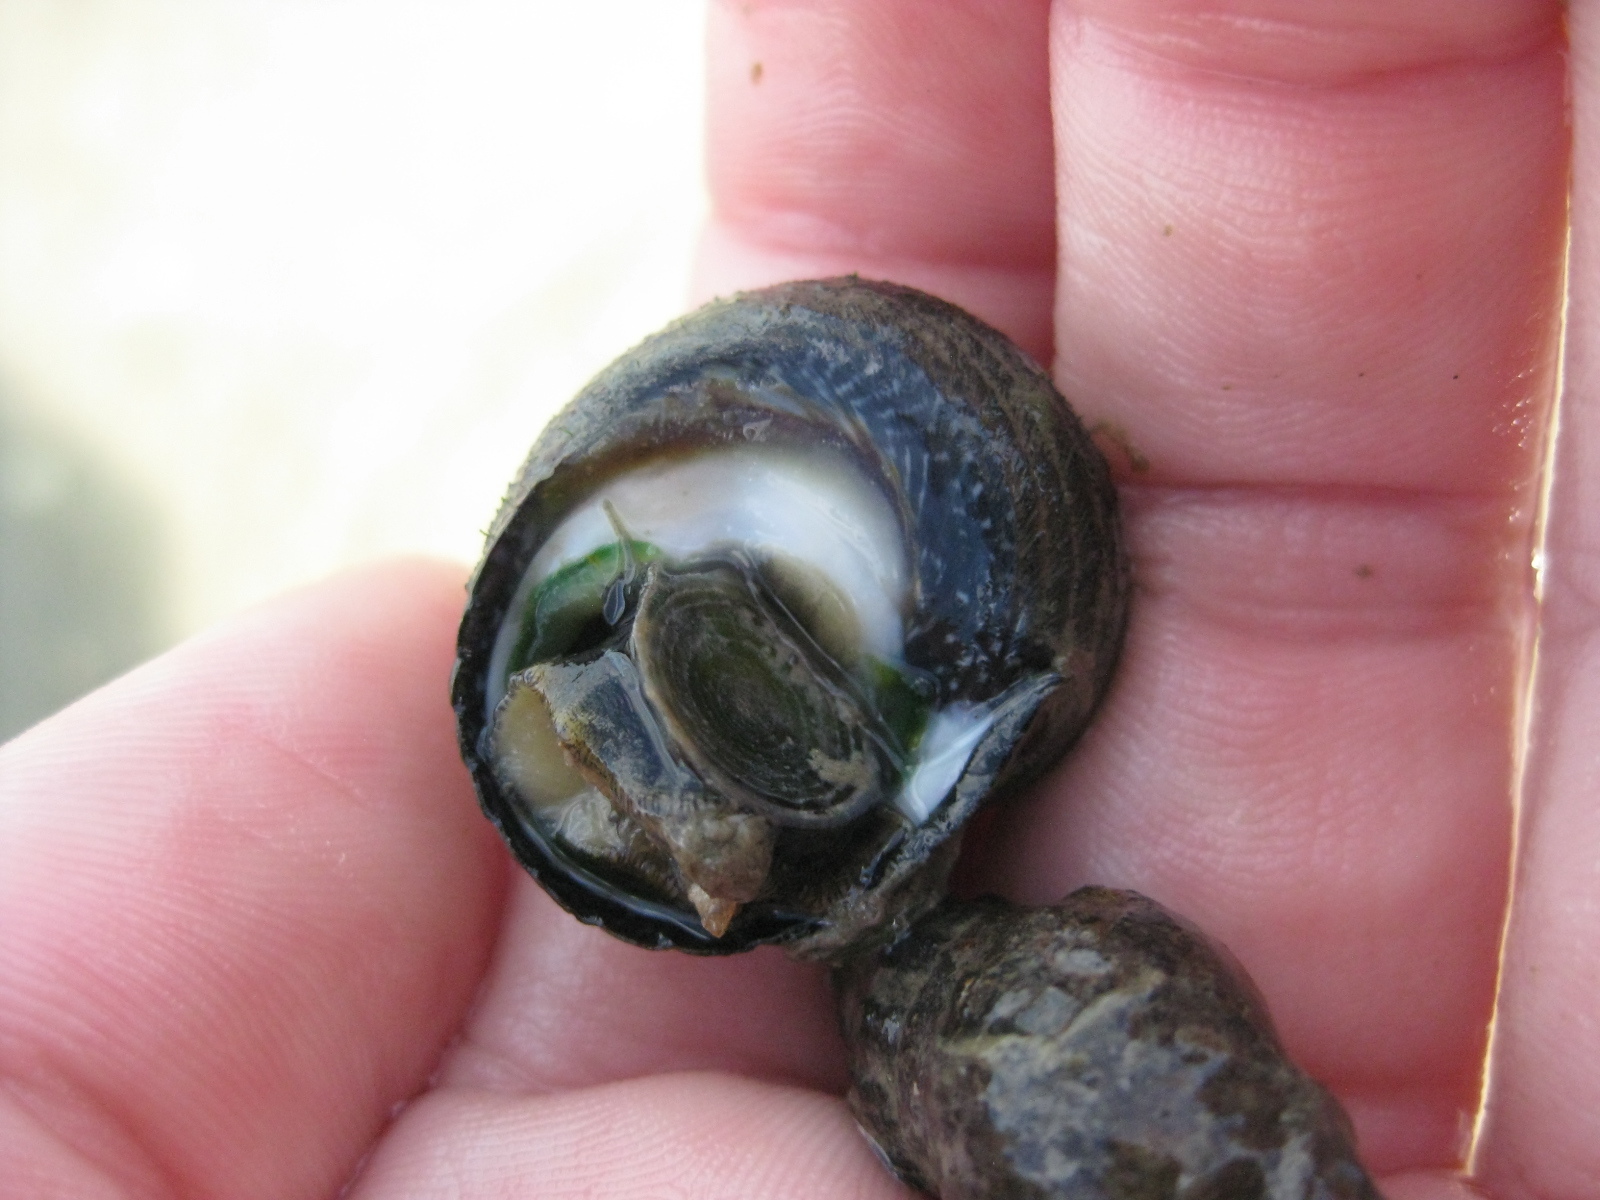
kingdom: Animalia
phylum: Mollusca
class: Gastropoda
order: Trochida
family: Trochidae
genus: Diloma
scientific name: Diloma aethiops
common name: Scorched monodont
